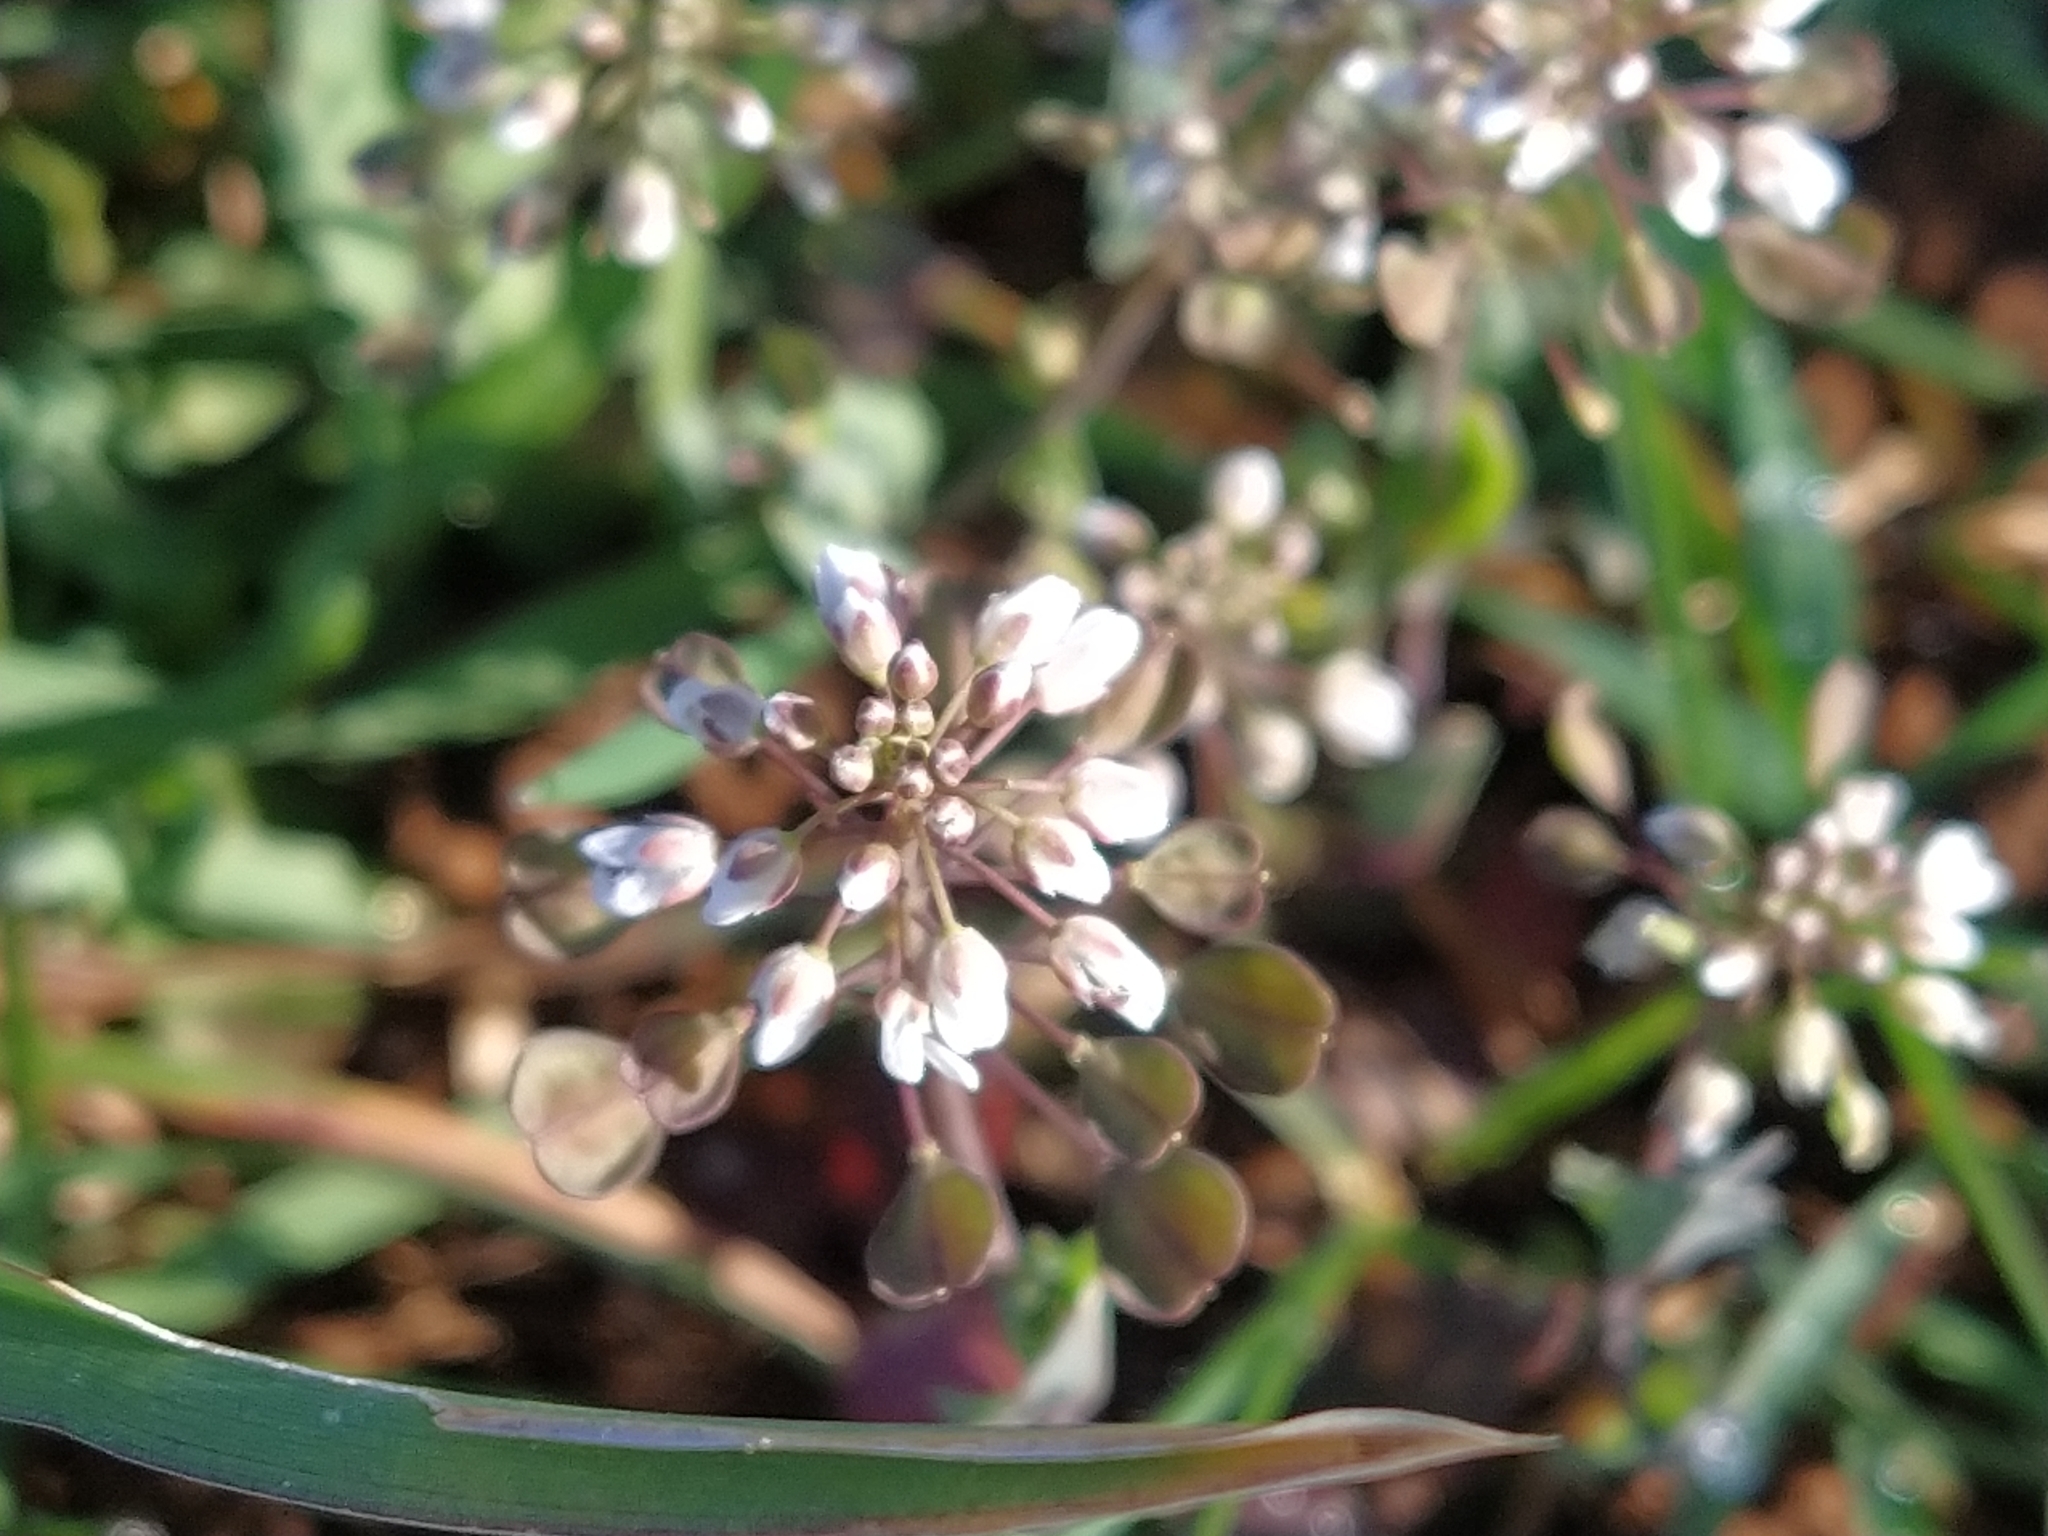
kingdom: Plantae
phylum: Tracheophyta
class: Magnoliopsida
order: Brassicales
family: Brassicaceae
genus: Noccaea
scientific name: Noccaea perfoliata
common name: Perfoliate pennycress
